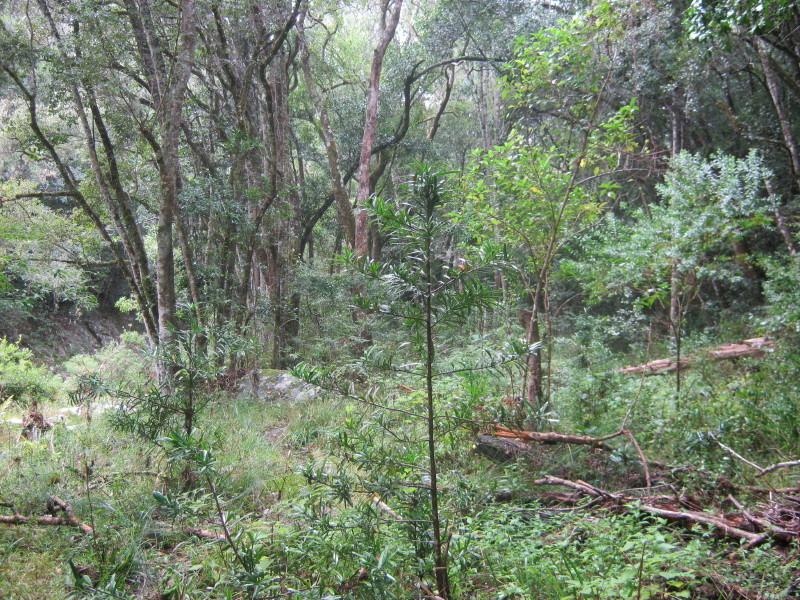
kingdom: Plantae
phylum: Tracheophyta
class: Pinopsida
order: Pinales
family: Podocarpaceae
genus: Podocarpus
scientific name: Podocarpus latifolius
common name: True yellowwood
